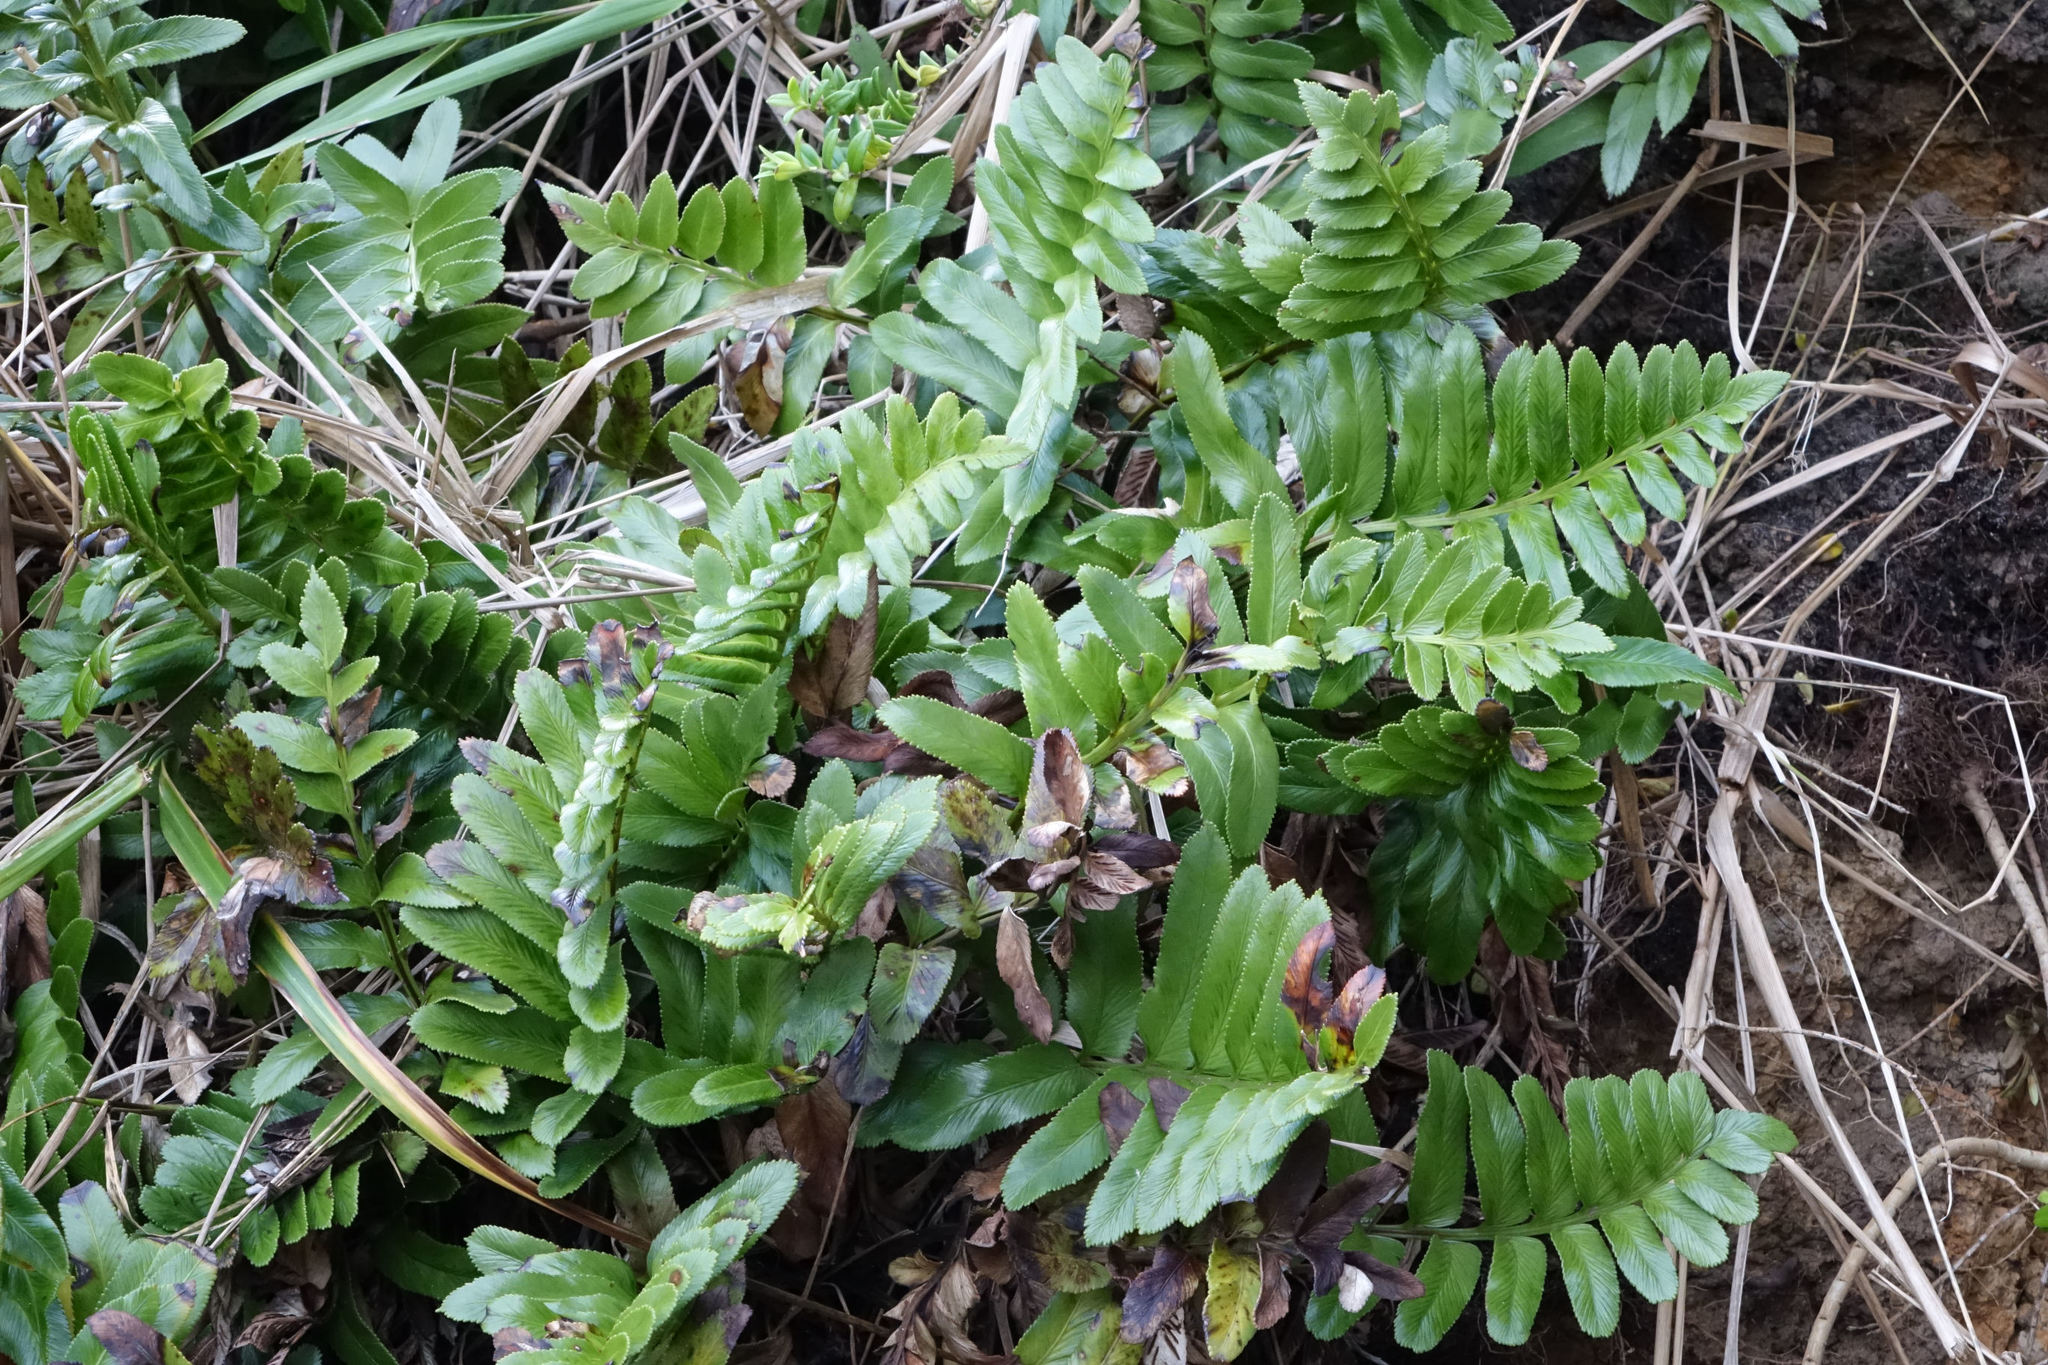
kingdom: Plantae
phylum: Tracheophyta
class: Polypodiopsida
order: Polypodiales
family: Aspleniaceae
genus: Asplenium
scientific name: Asplenium obtusatum
